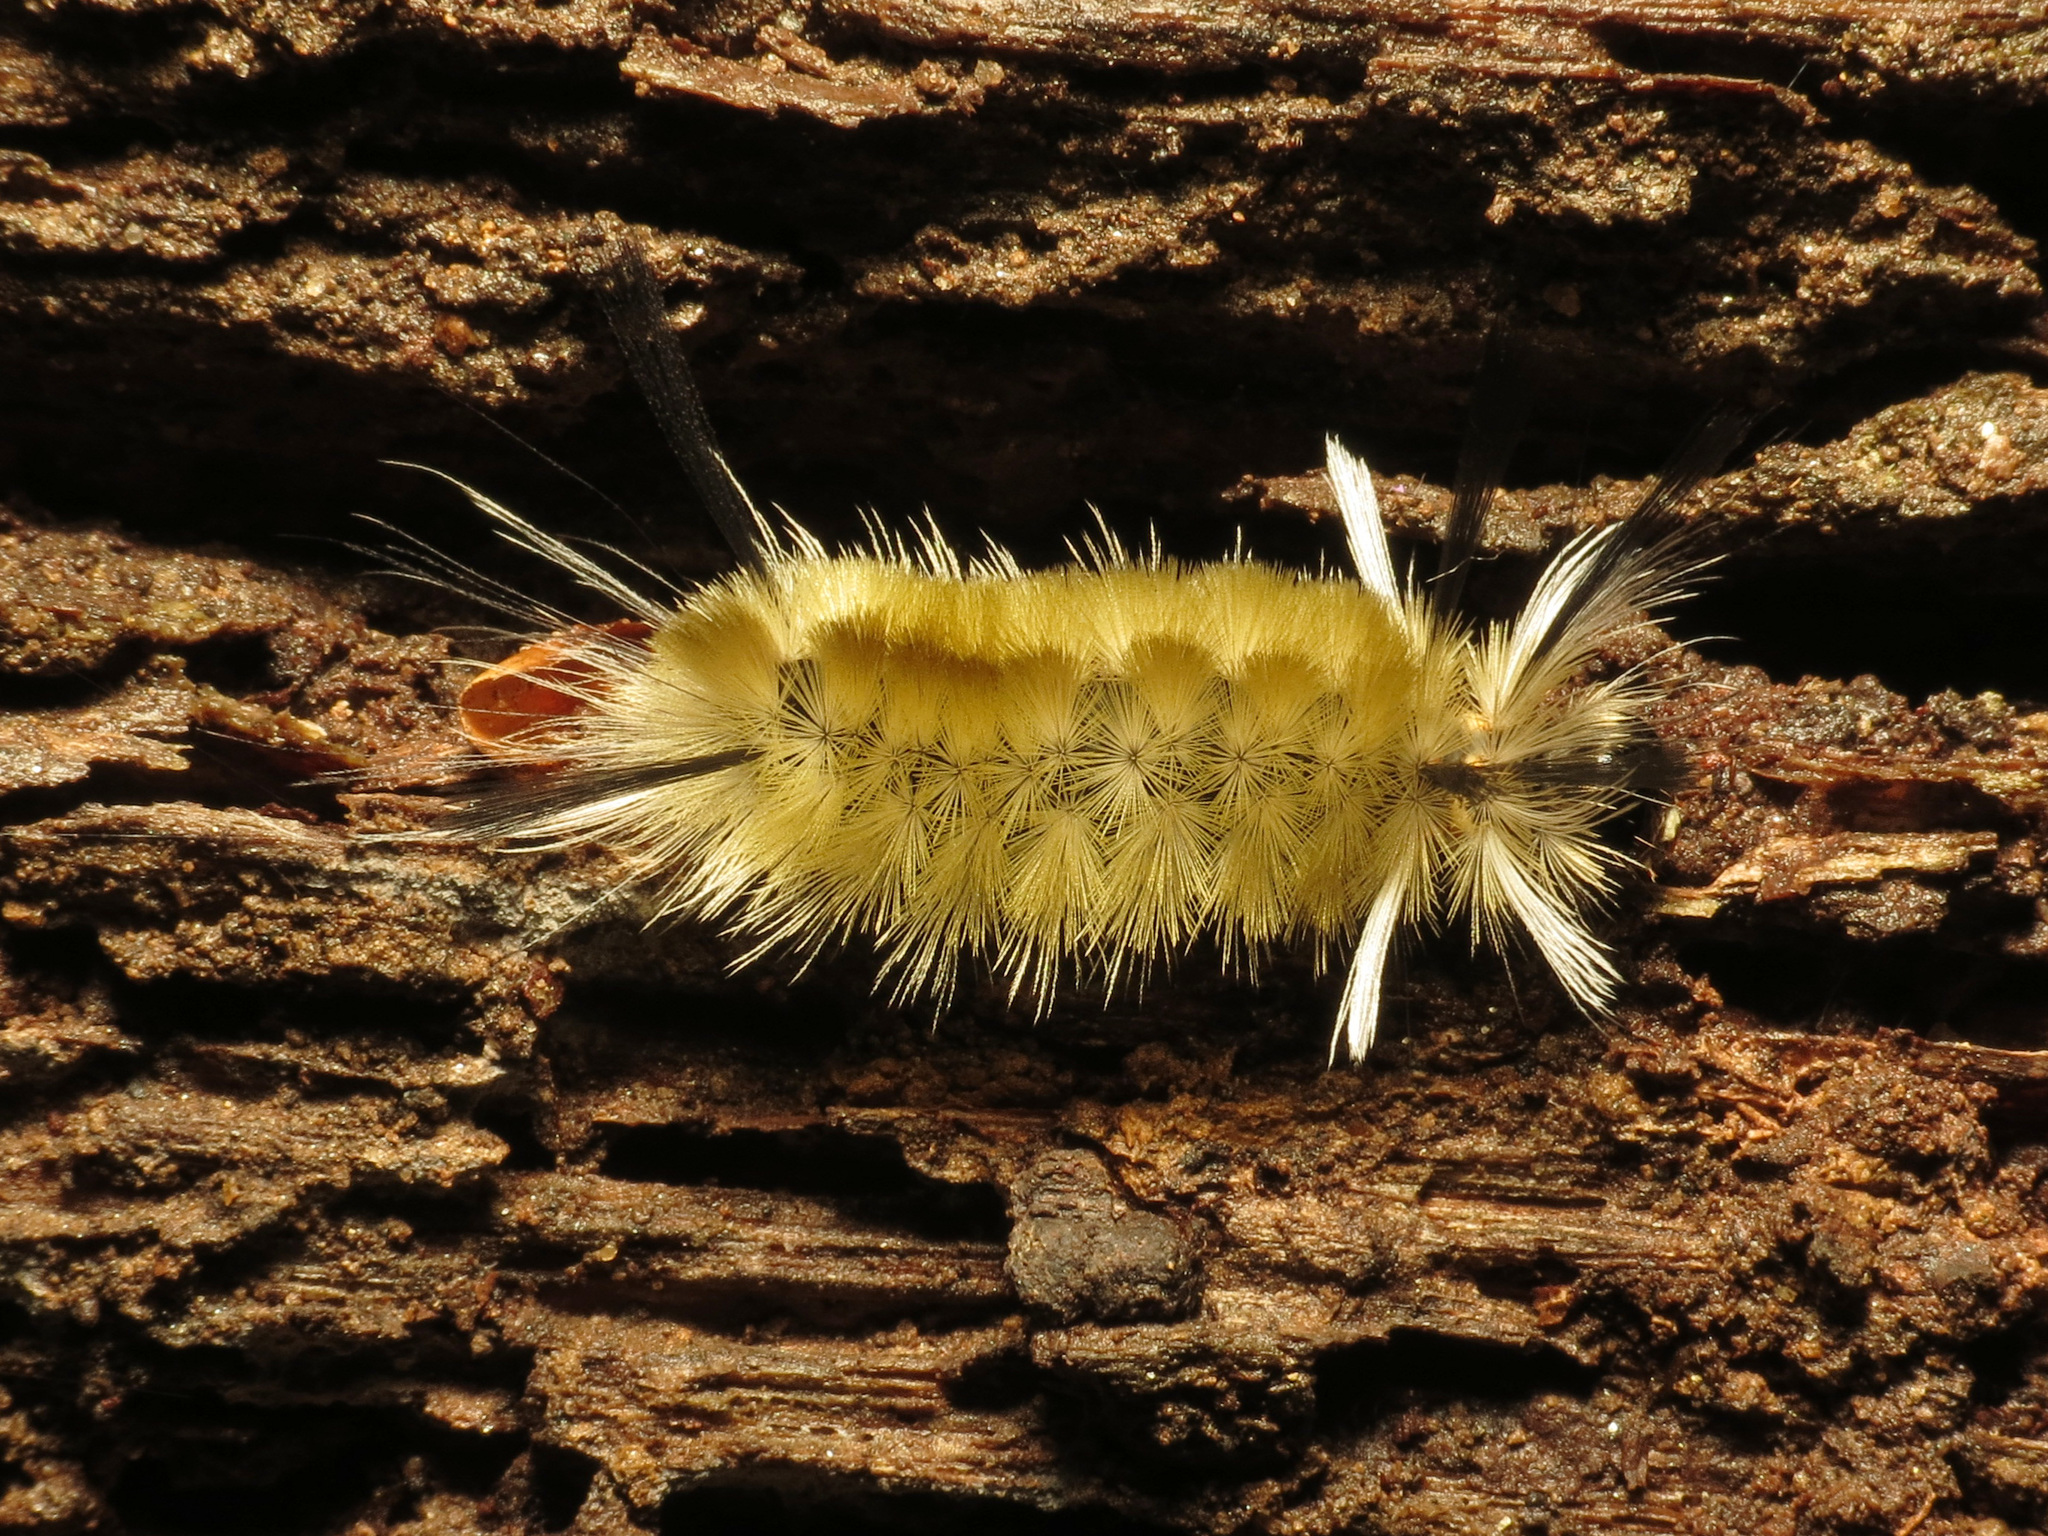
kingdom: Animalia
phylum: Arthropoda
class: Insecta
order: Lepidoptera
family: Erebidae
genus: Halysidota
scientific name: Halysidota tessellaris
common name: Banded tussock moth
